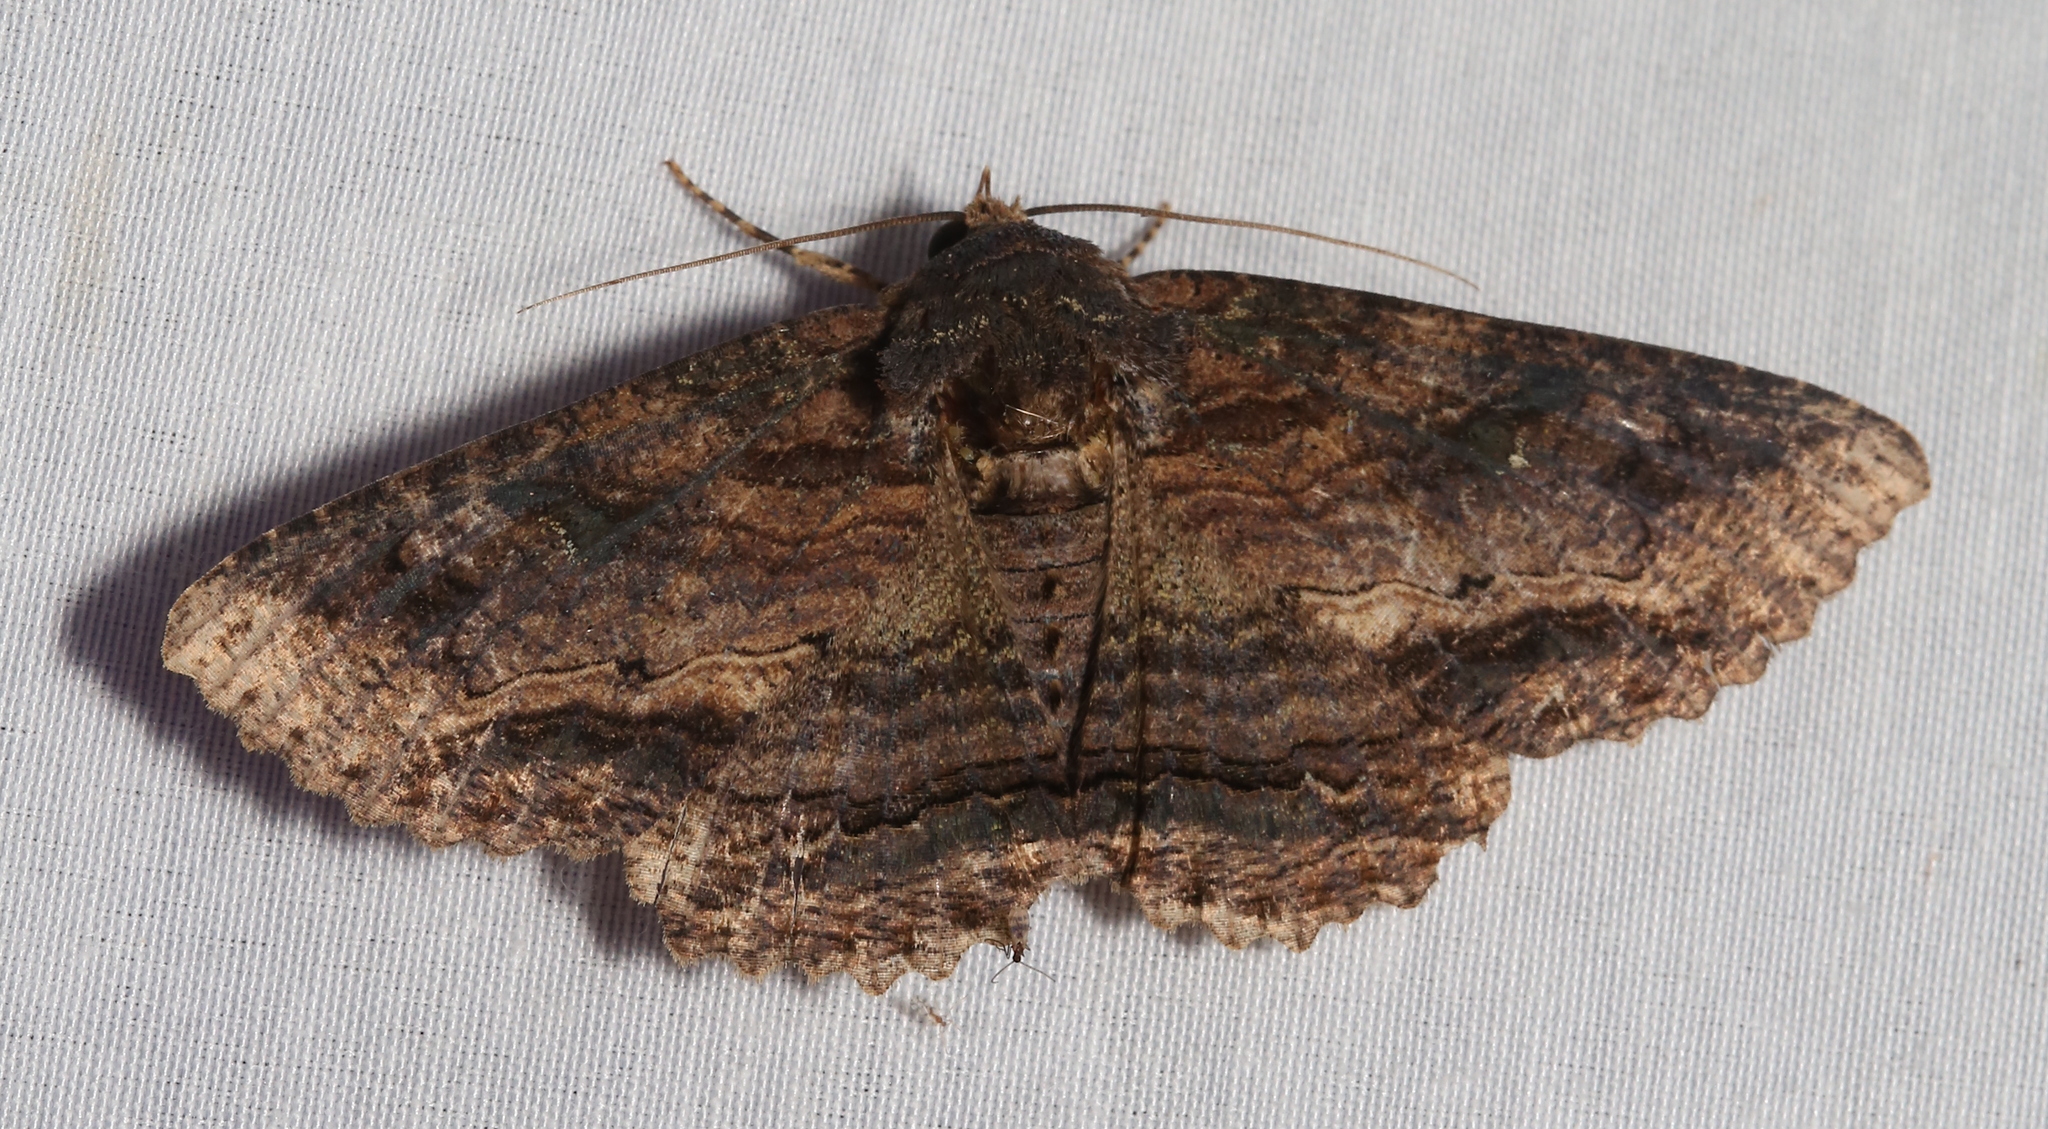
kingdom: Animalia
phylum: Arthropoda
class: Insecta
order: Lepidoptera
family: Erebidae
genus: Zale
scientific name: Zale lunata
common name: Lunate zale moth
